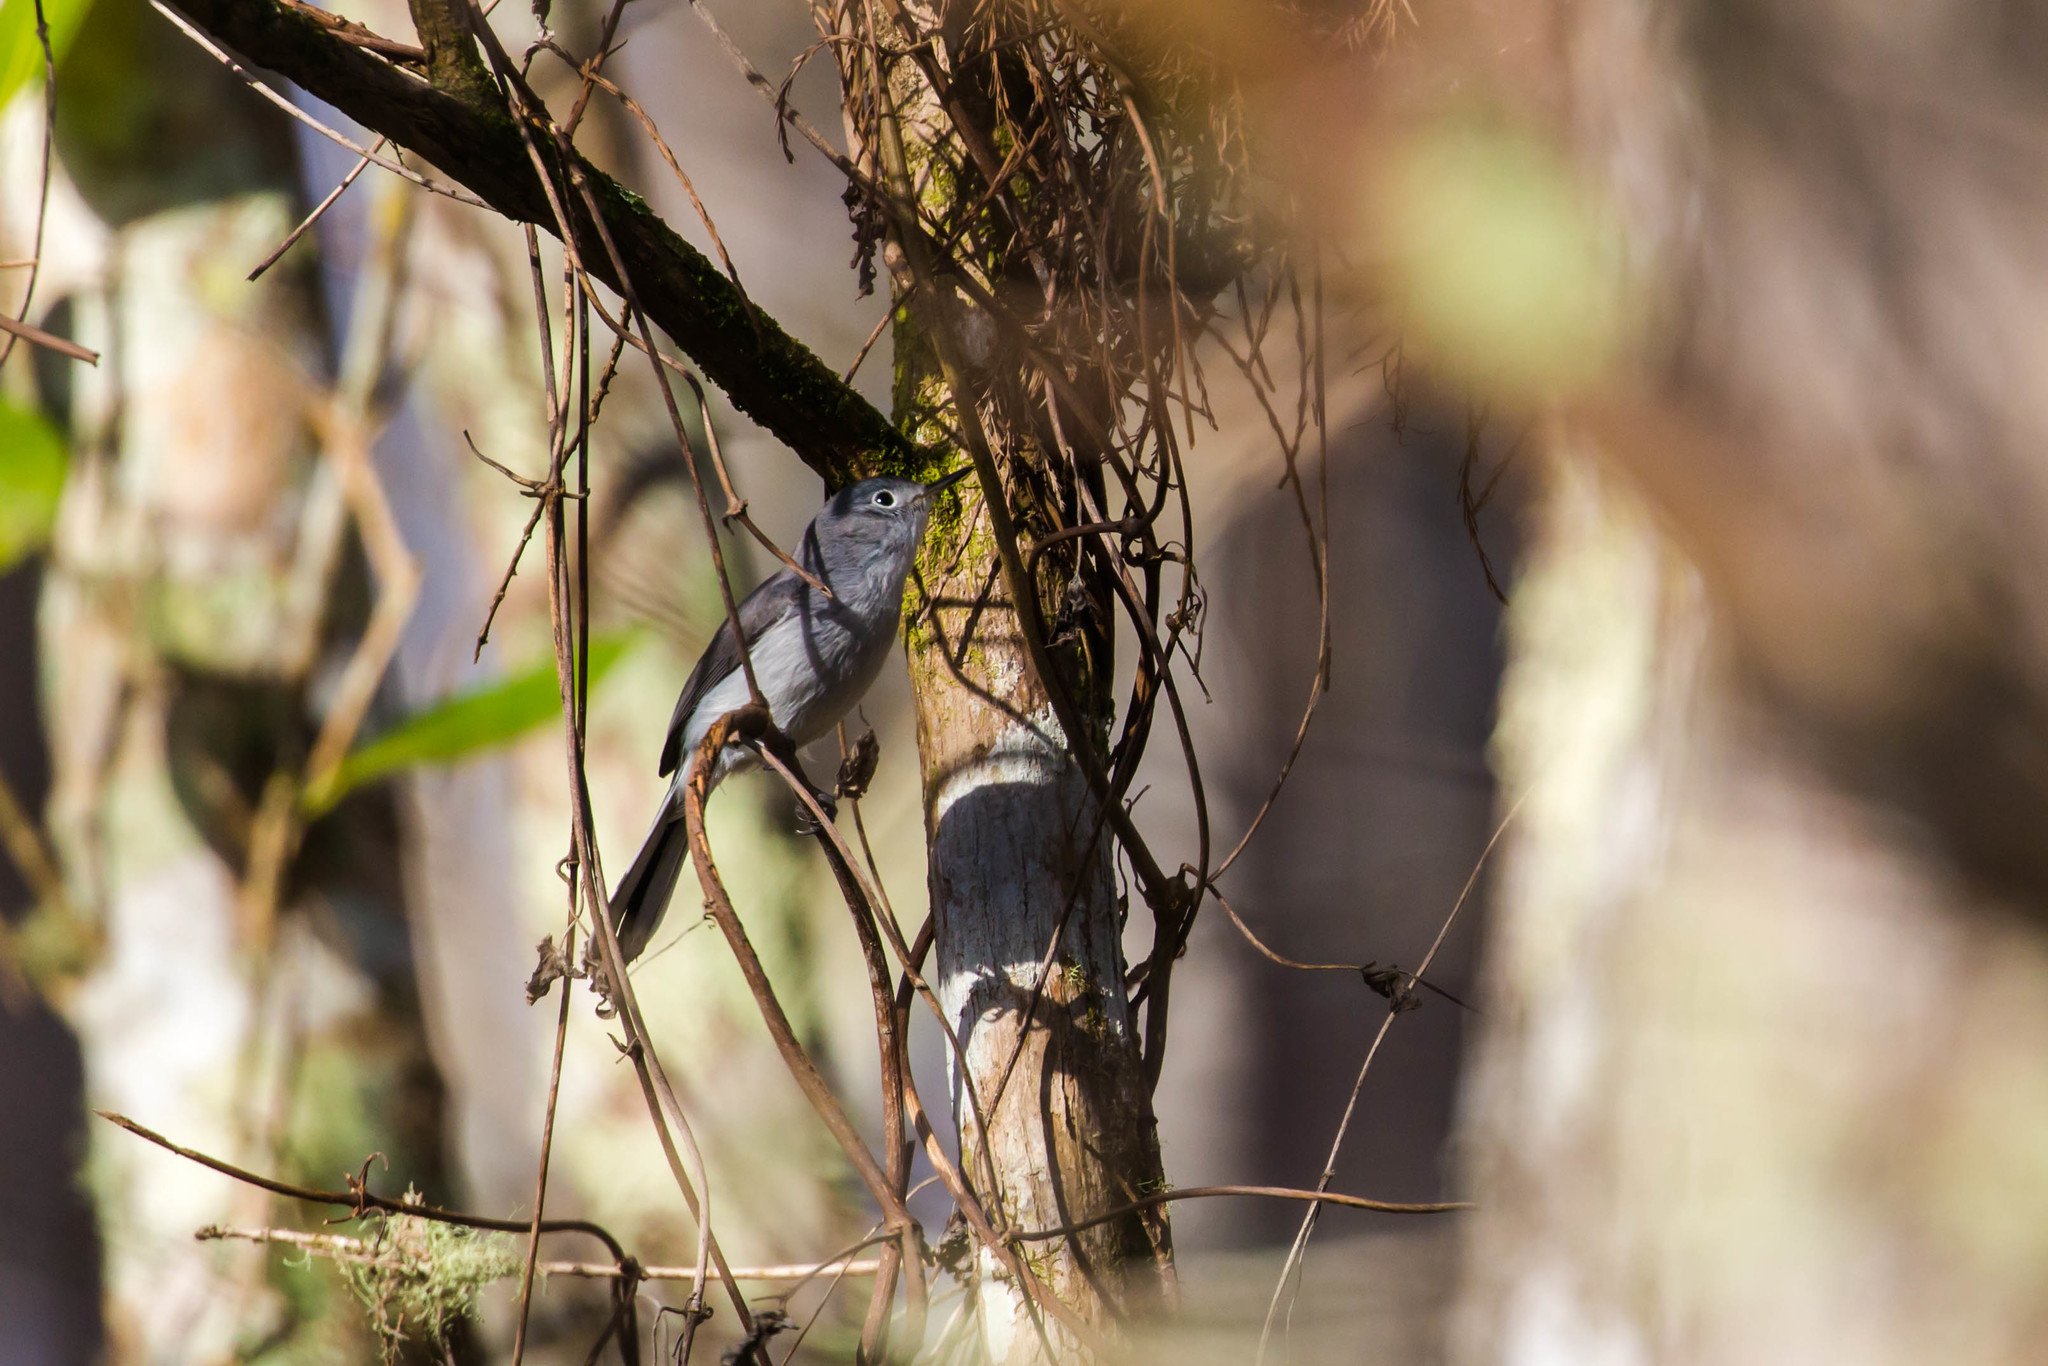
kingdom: Animalia
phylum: Chordata
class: Aves
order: Passeriformes
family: Polioptilidae
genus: Polioptila
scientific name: Polioptila caerulea
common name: Blue-gray gnatcatcher
